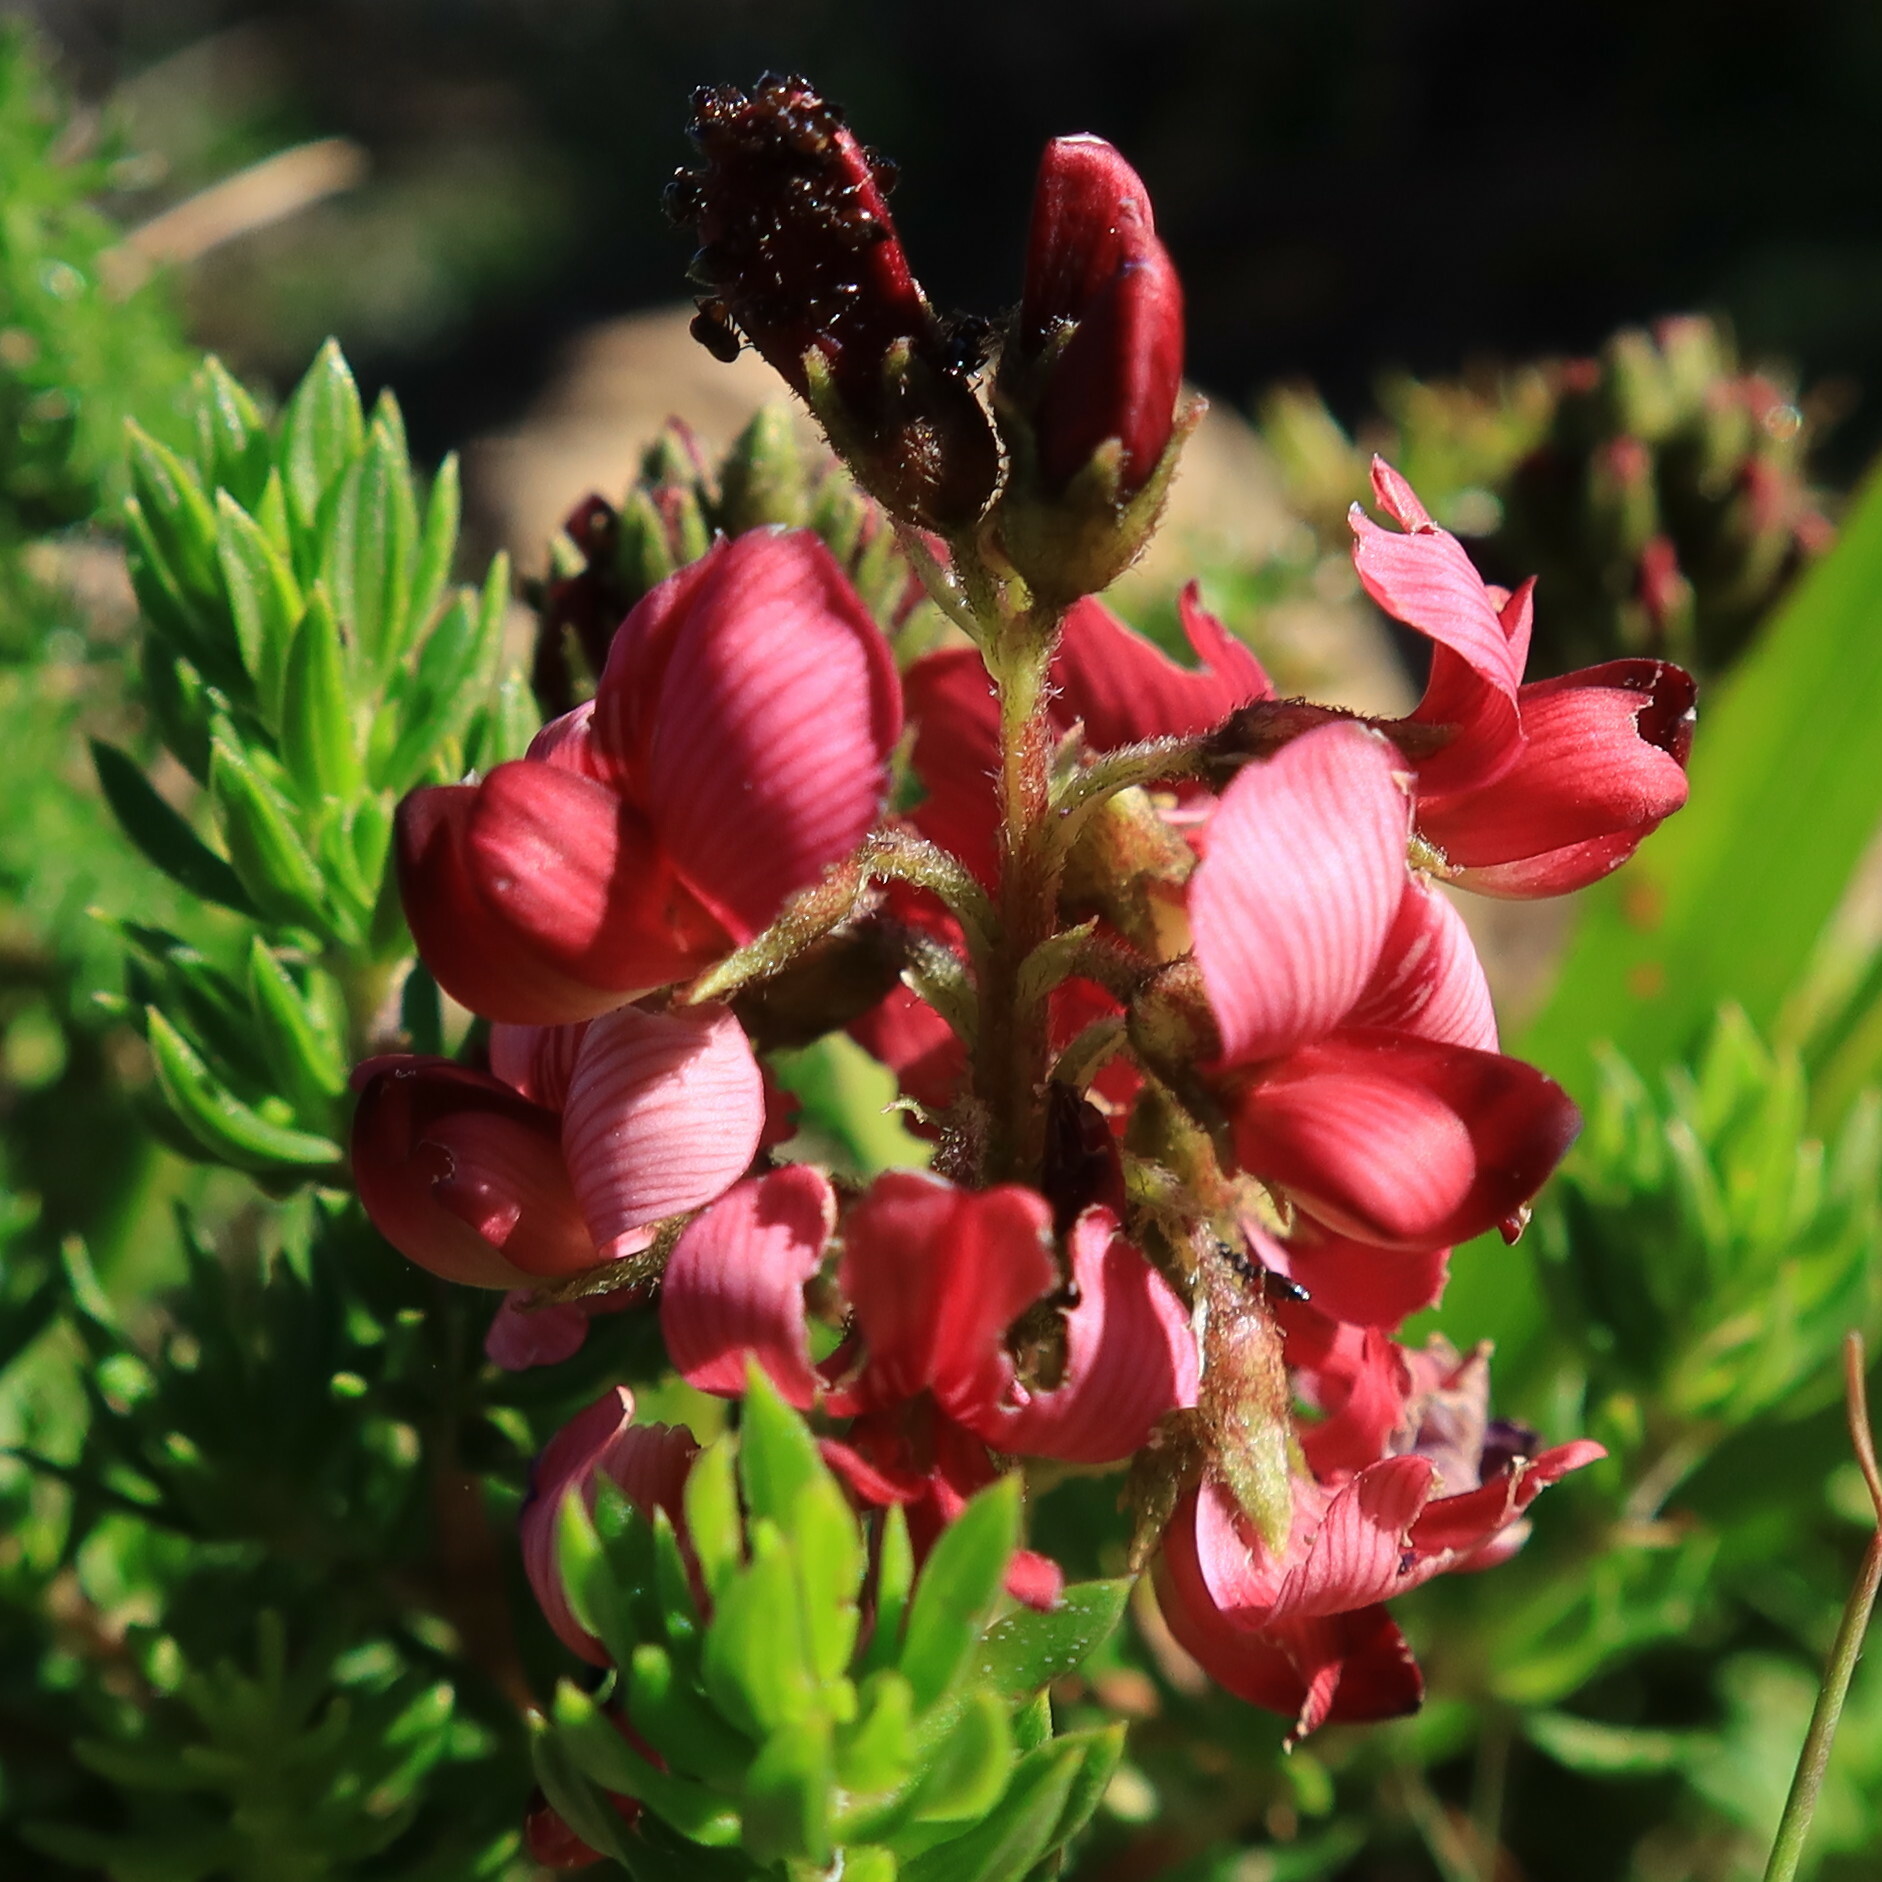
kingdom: Plantae
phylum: Tracheophyta
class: Magnoliopsida
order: Fabales
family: Fabaceae
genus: Lessertia
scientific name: Lessertia capensis
